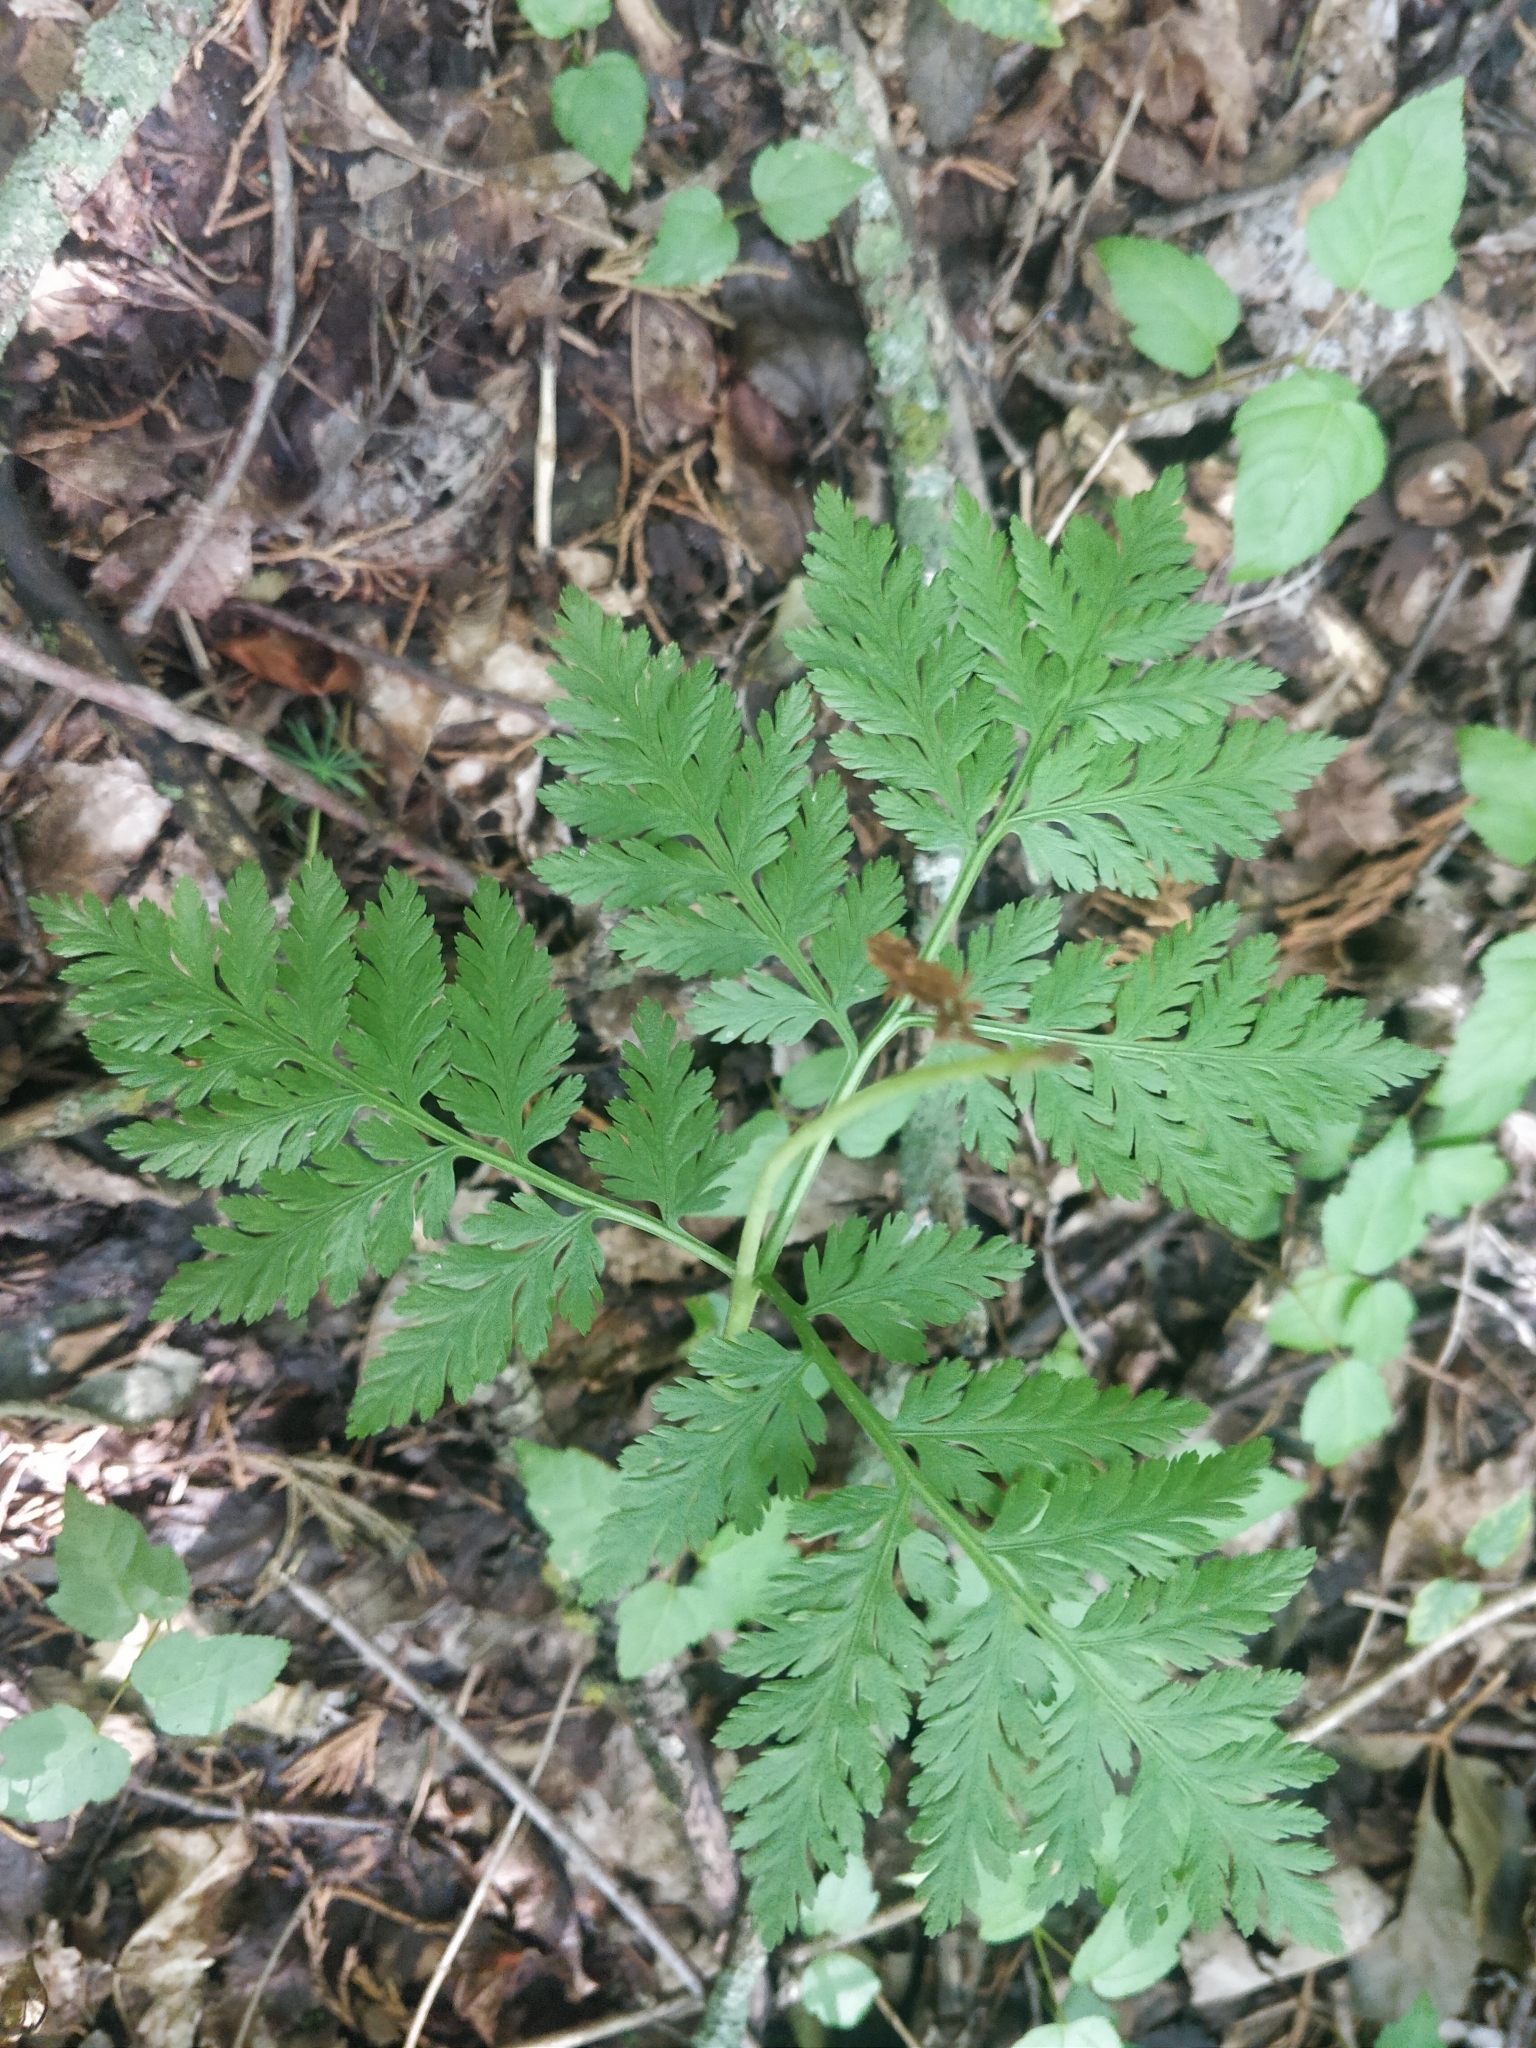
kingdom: Plantae
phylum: Tracheophyta
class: Polypodiopsida
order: Ophioglossales
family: Ophioglossaceae
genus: Botrypus
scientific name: Botrypus virginianus
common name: Common grapefern
